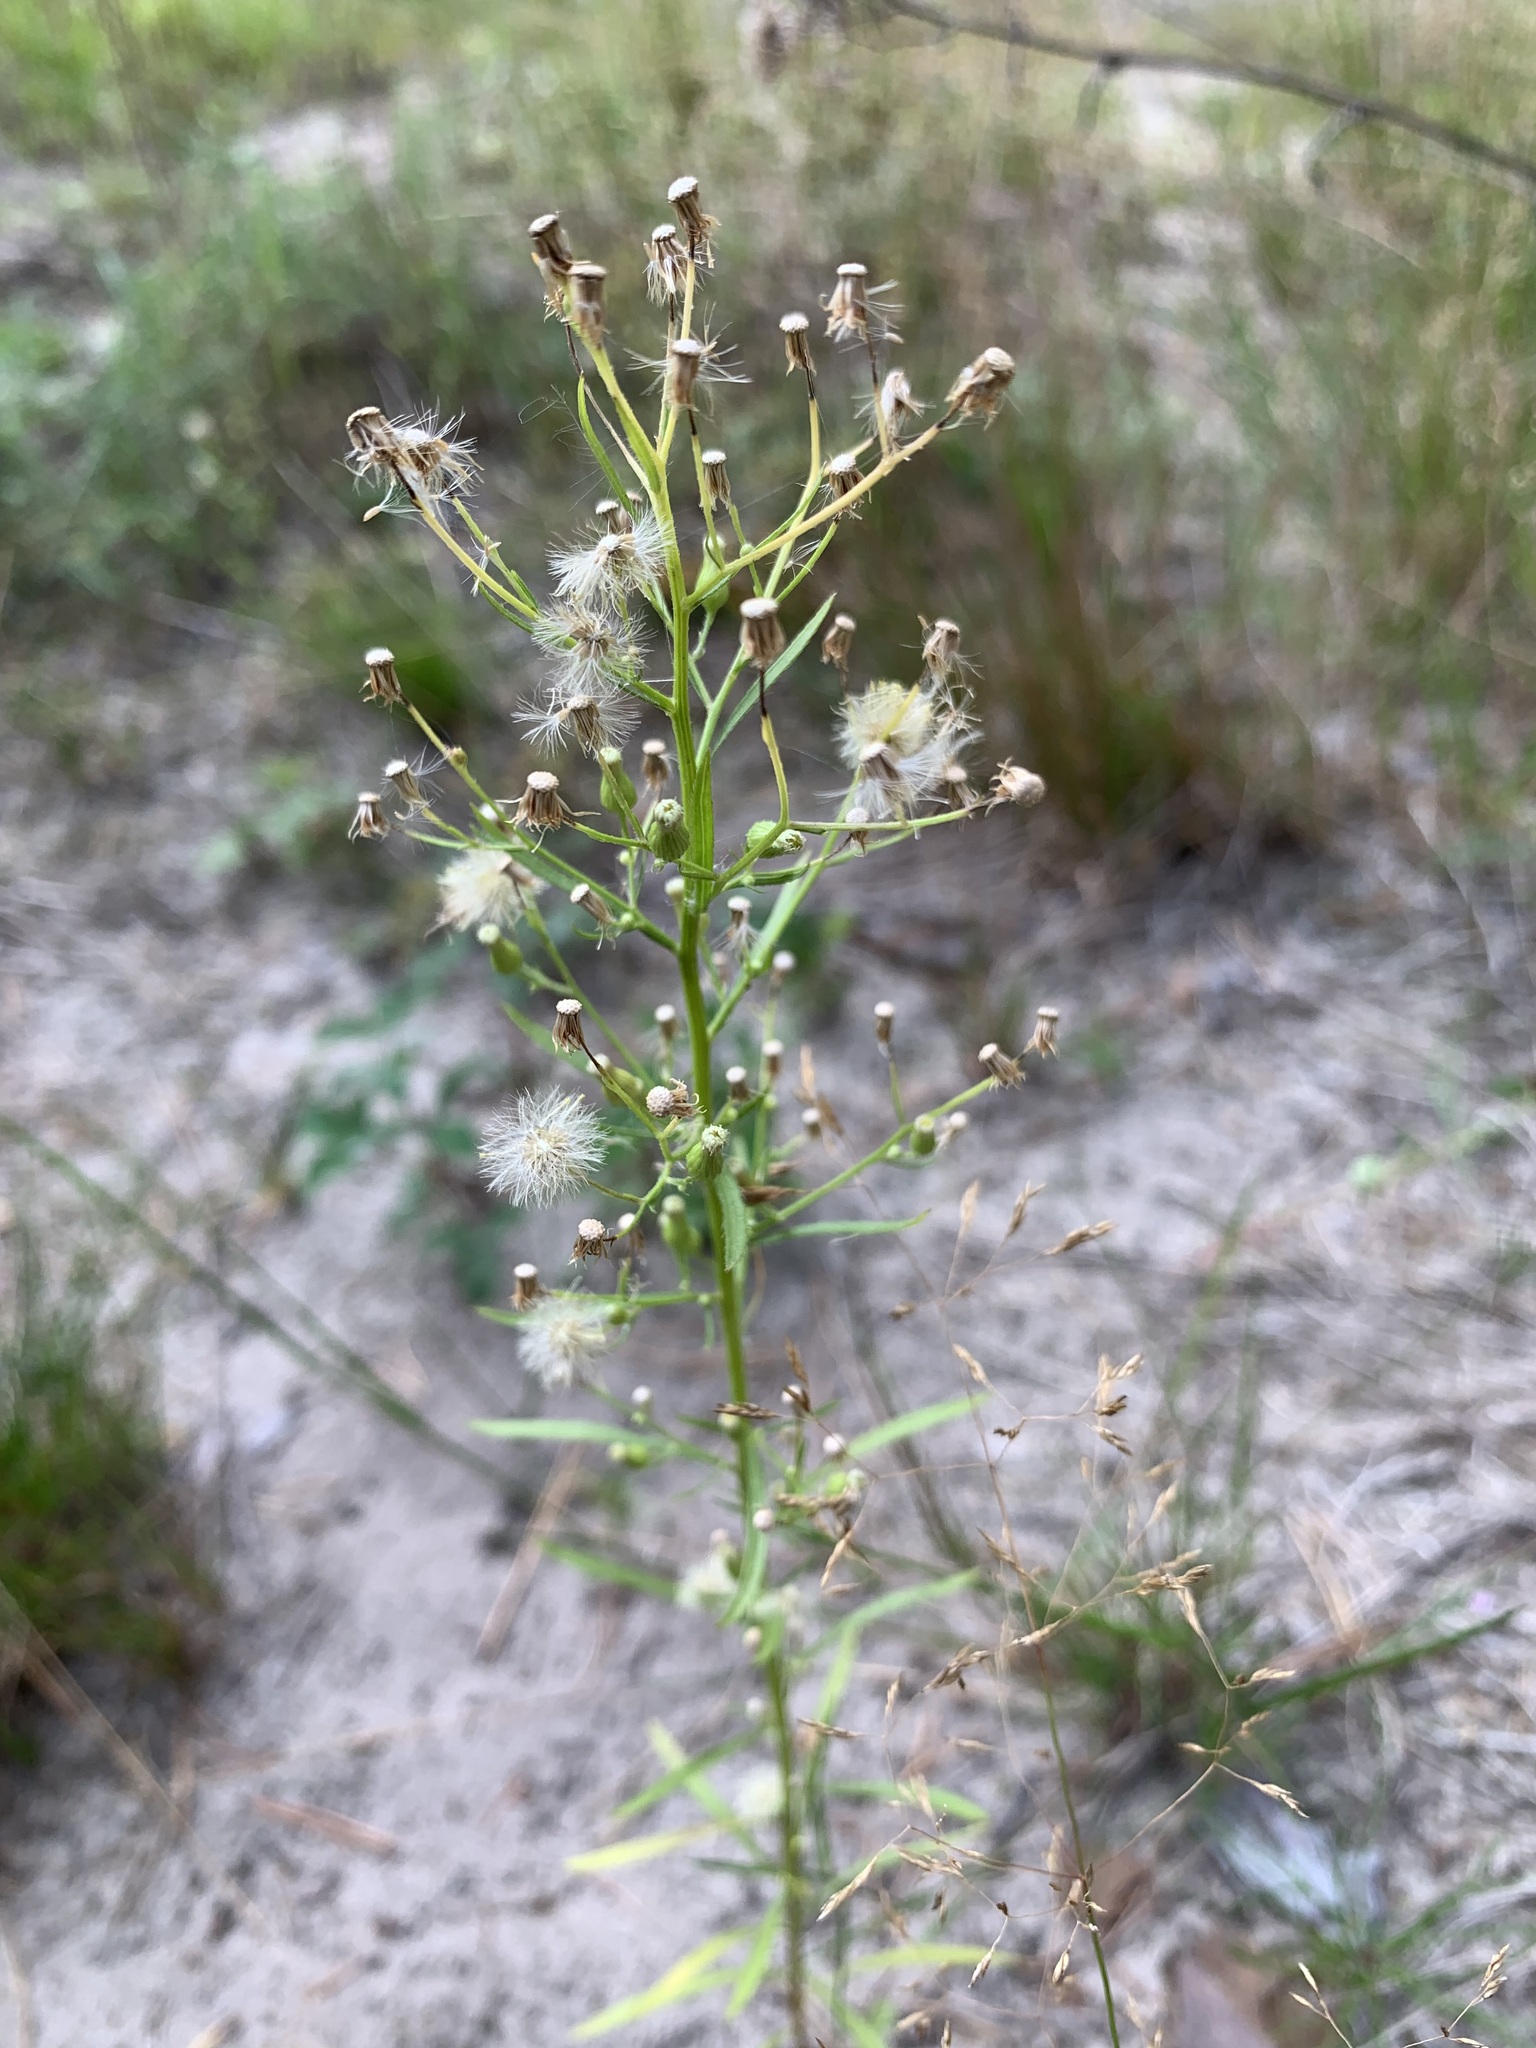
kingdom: Plantae
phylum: Tracheophyta
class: Magnoliopsida
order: Asterales
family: Asteraceae
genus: Erigeron
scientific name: Erigeron canadensis
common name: Canadian fleabane
